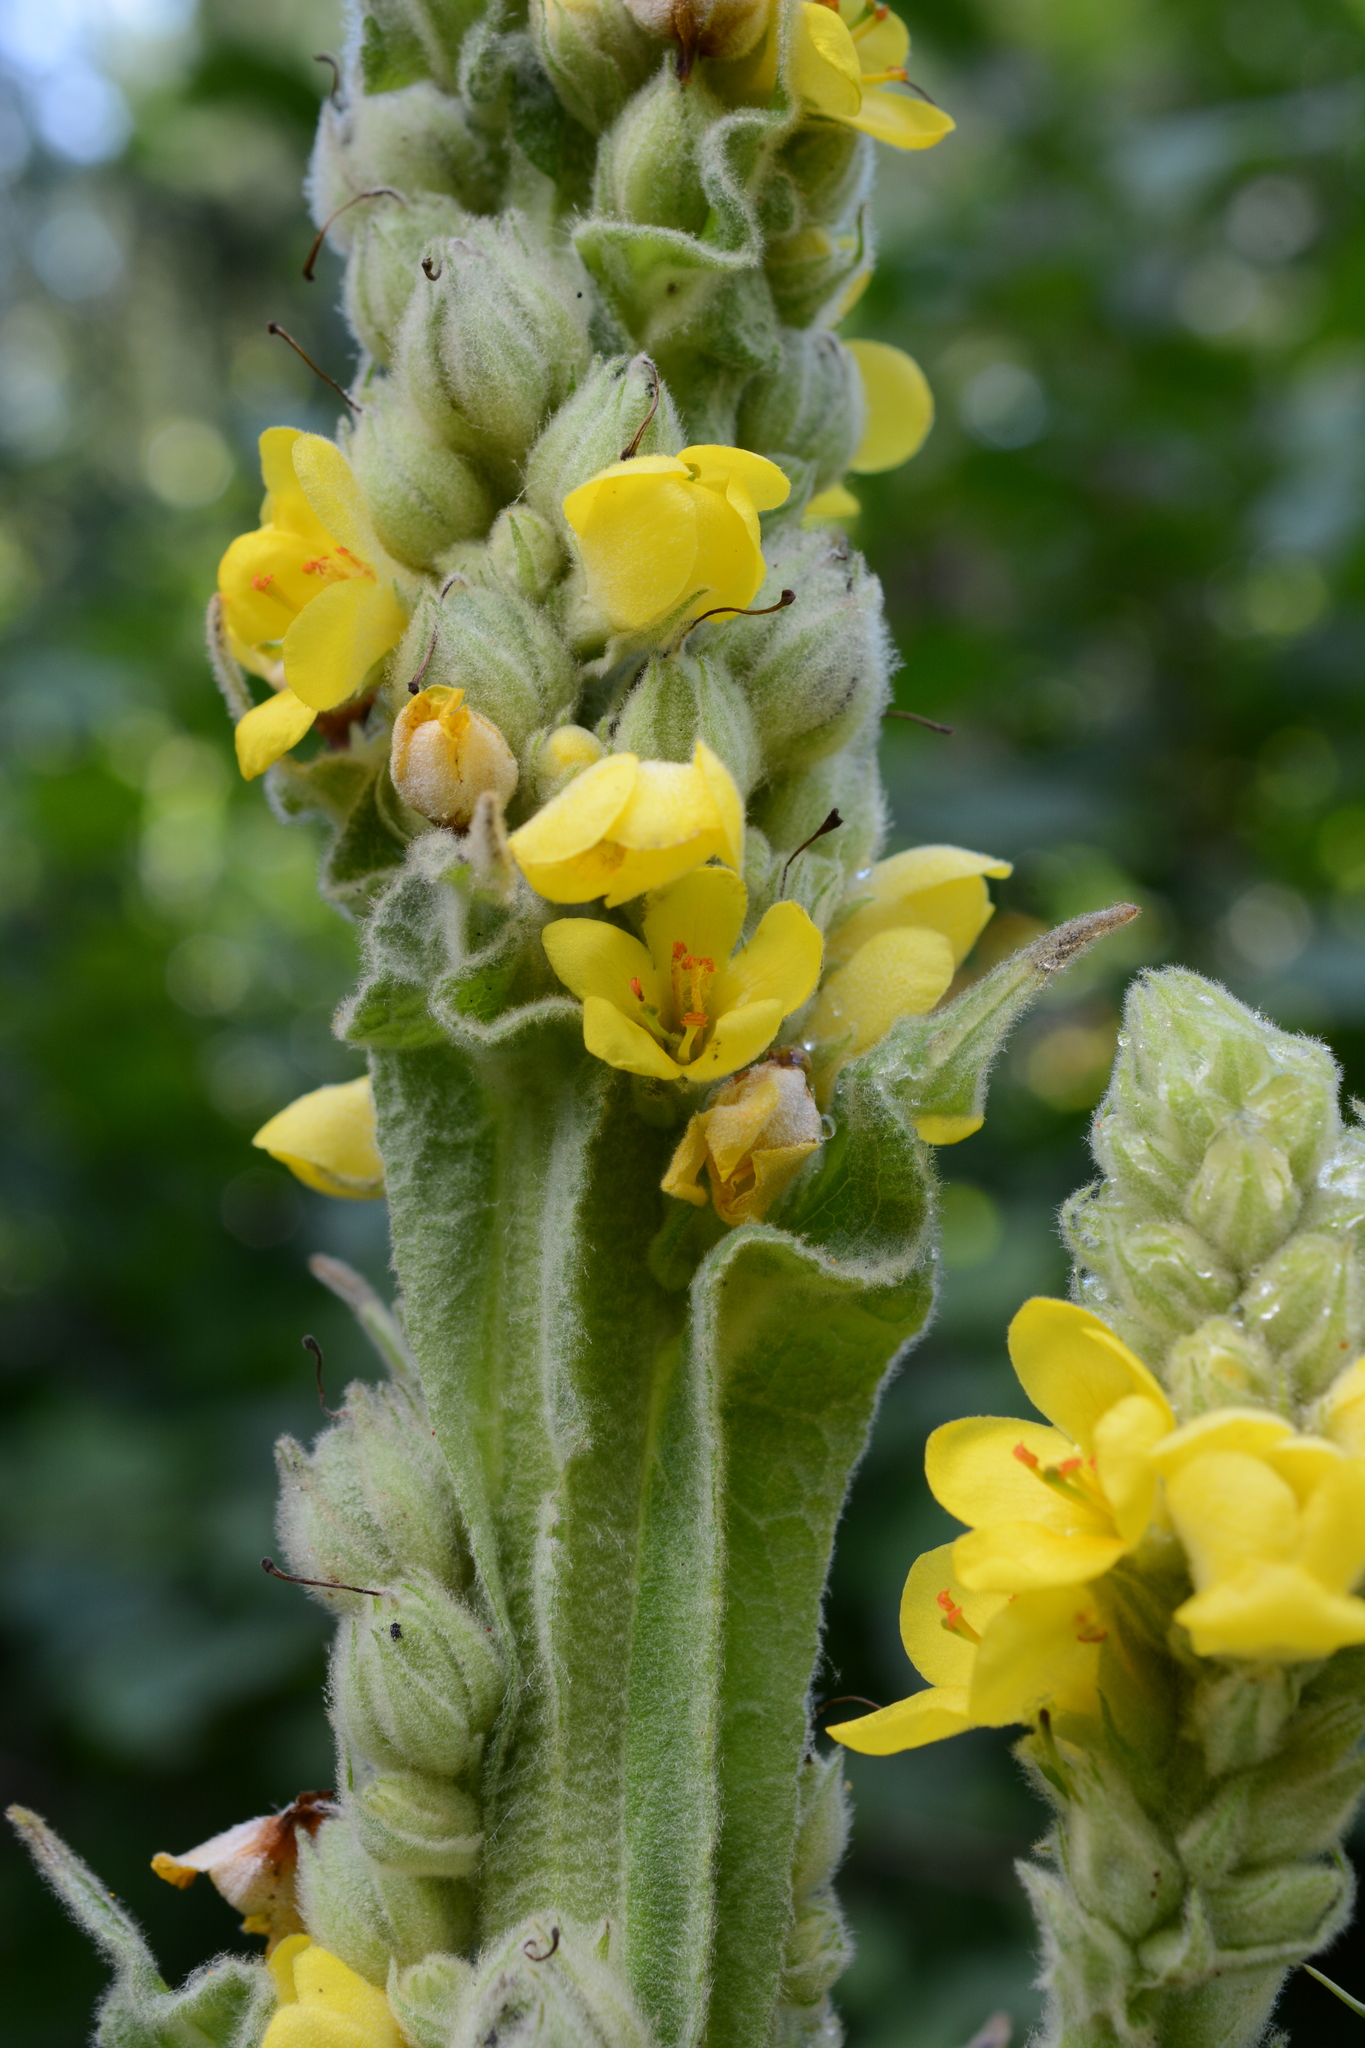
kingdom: Plantae
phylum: Tracheophyta
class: Magnoliopsida
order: Lamiales
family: Scrophulariaceae
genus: Verbascum
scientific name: Verbascum thapsus
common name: Common mullein
